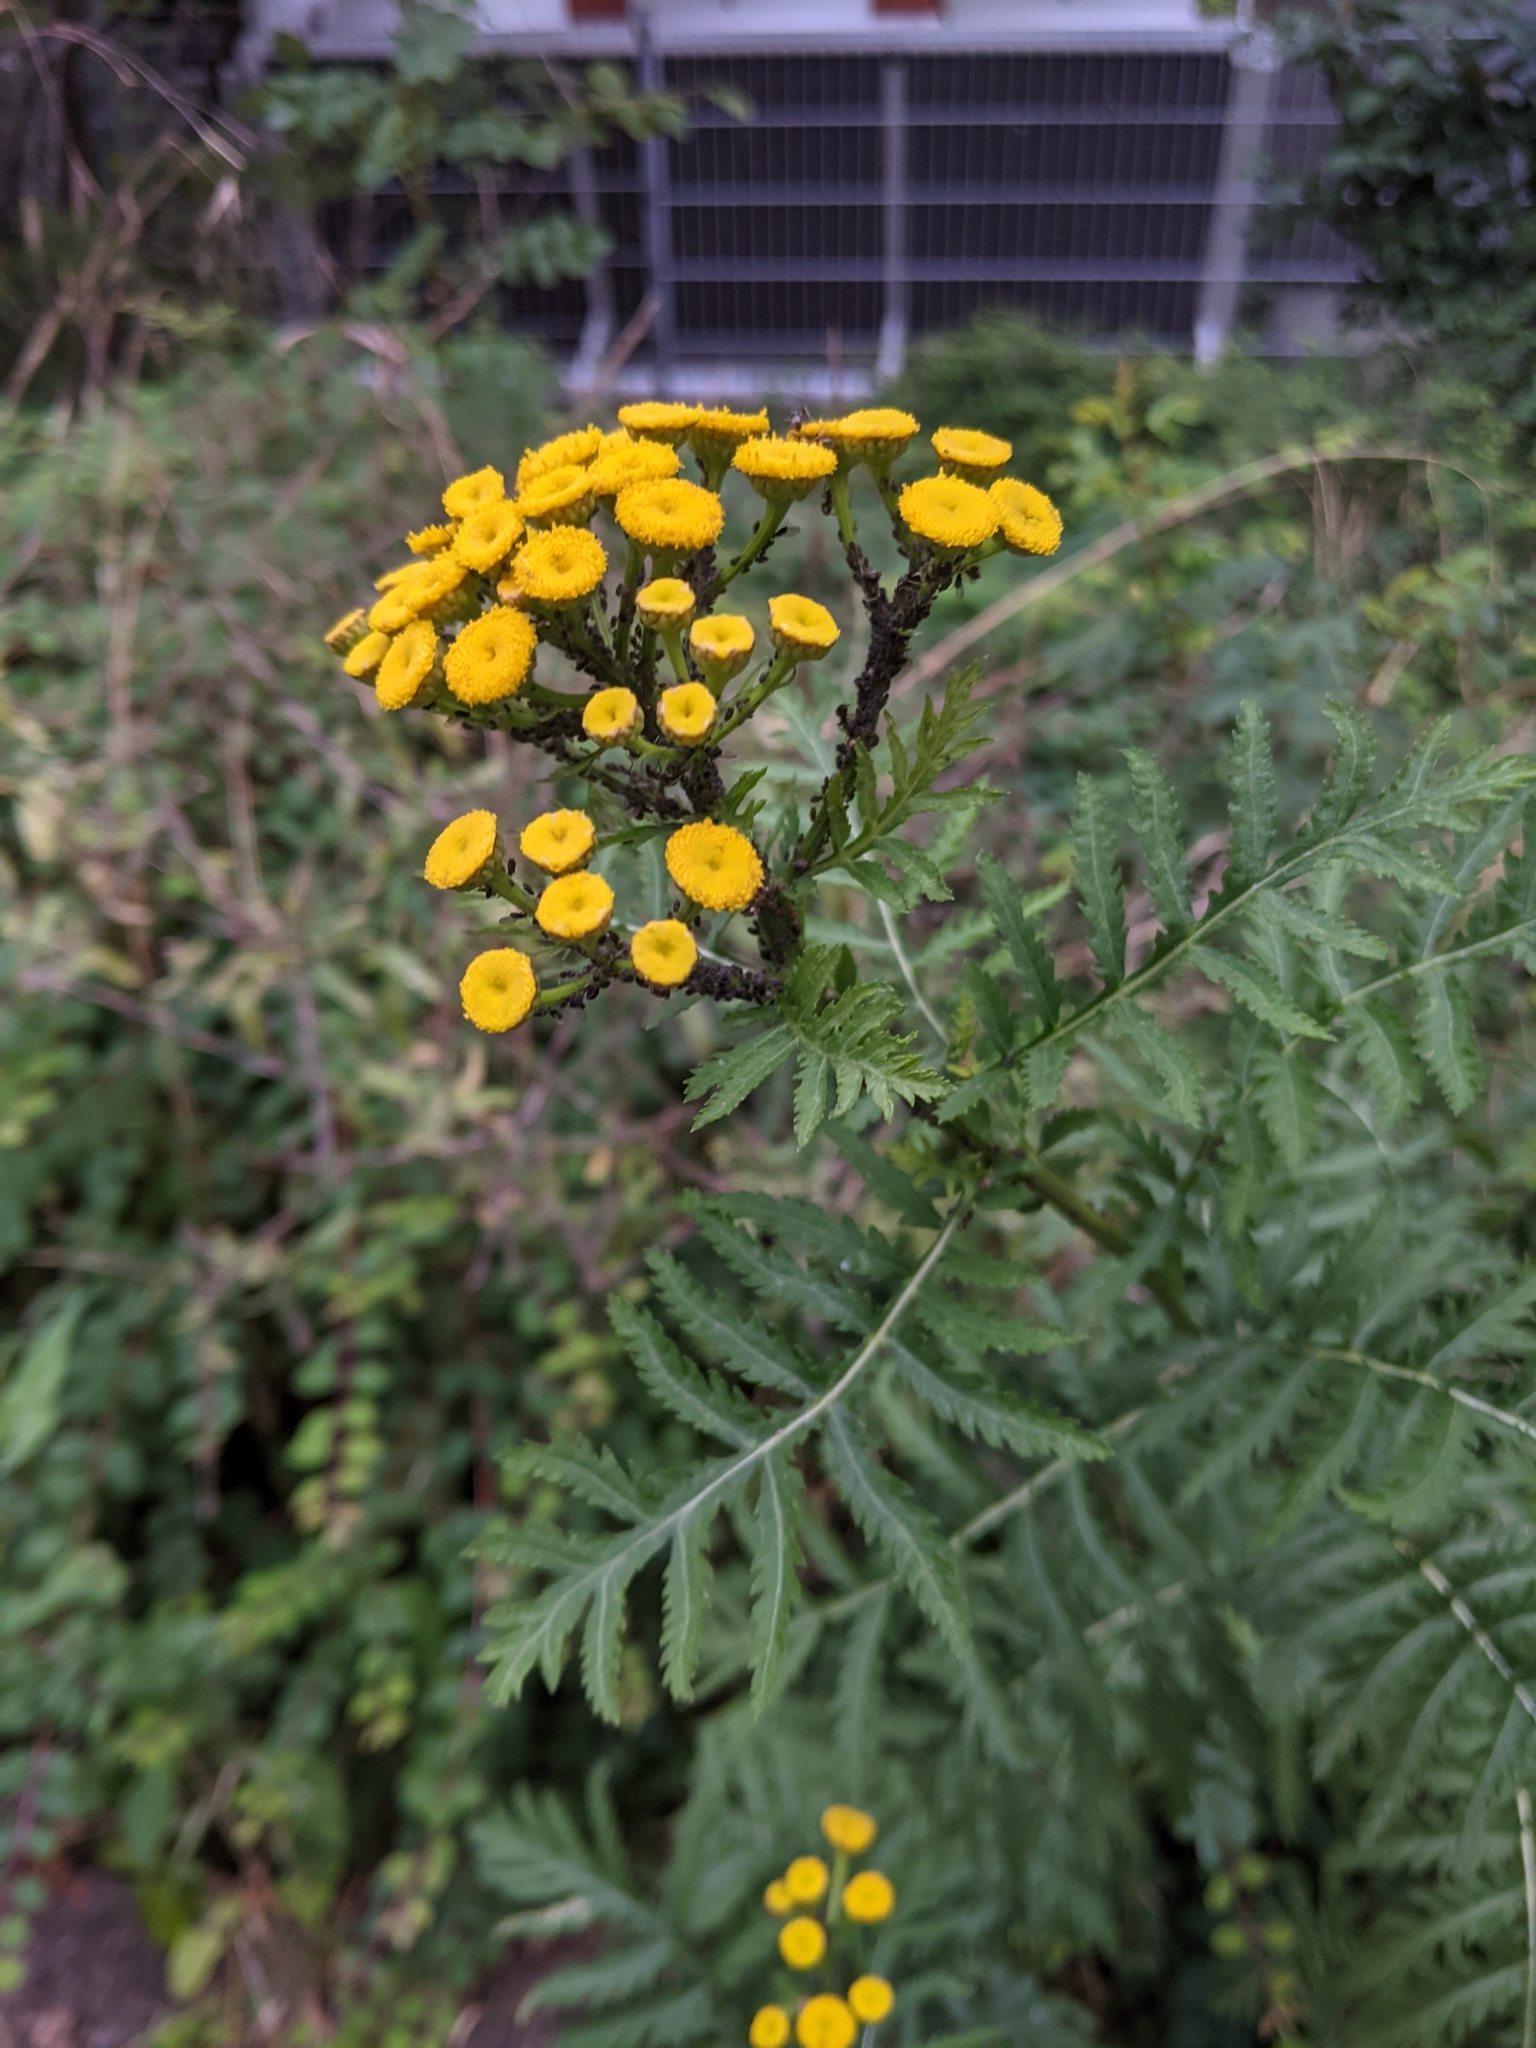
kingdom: Plantae
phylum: Tracheophyta
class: Magnoliopsida
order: Asterales
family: Asteraceae
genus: Tanacetum
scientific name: Tanacetum vulgare
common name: Common tansy
